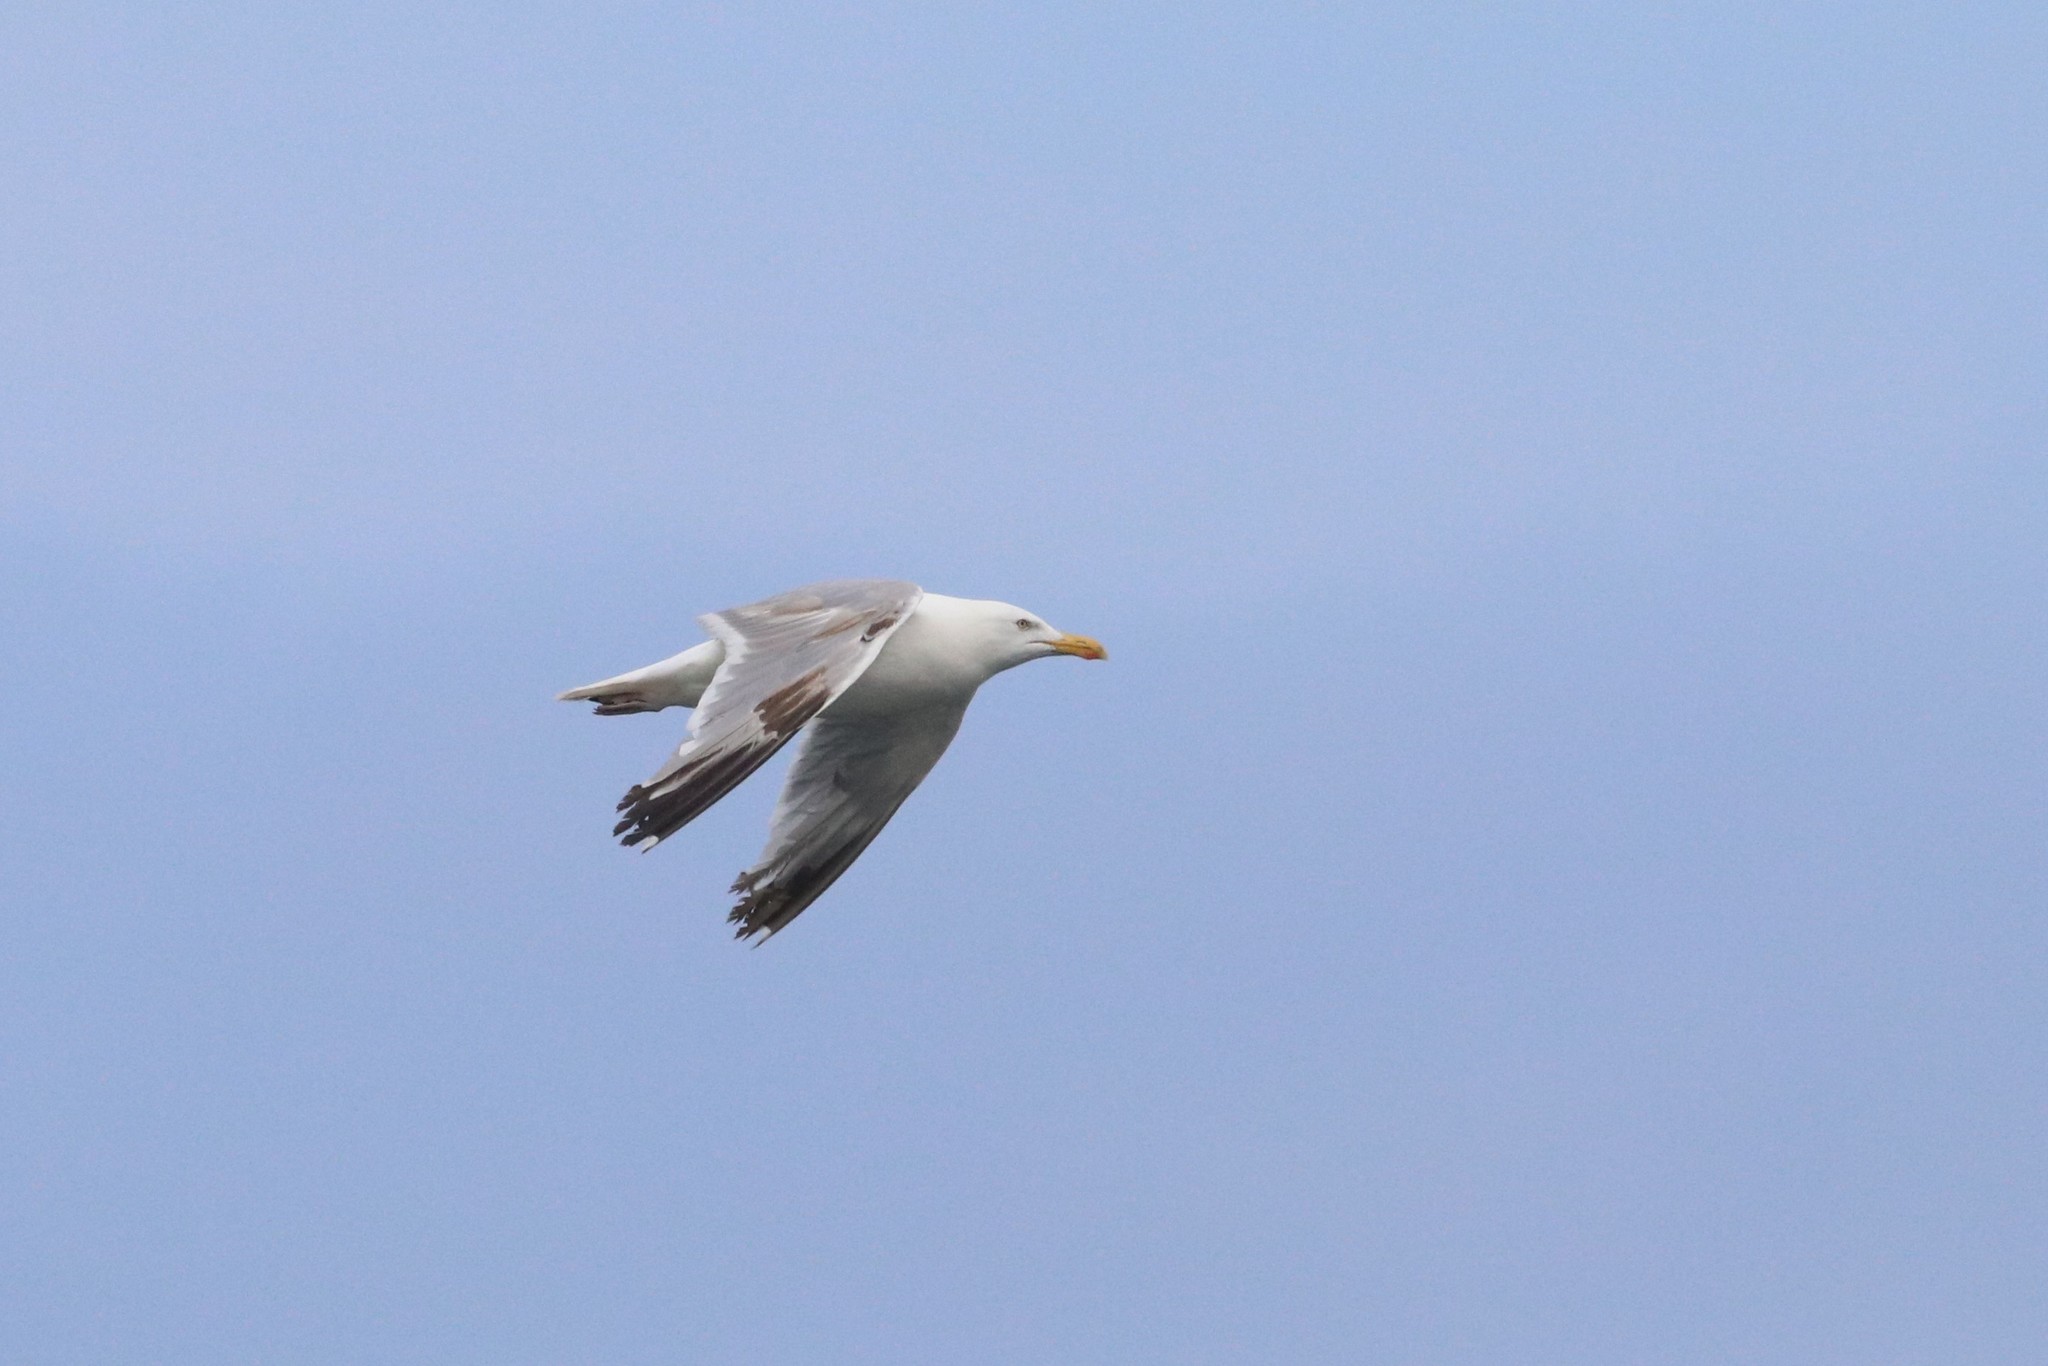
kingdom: Animalia
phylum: Chordata
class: Aves
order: Charadriiformes
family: Laridae
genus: Larus
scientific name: Larus argentatus
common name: Herring gull
